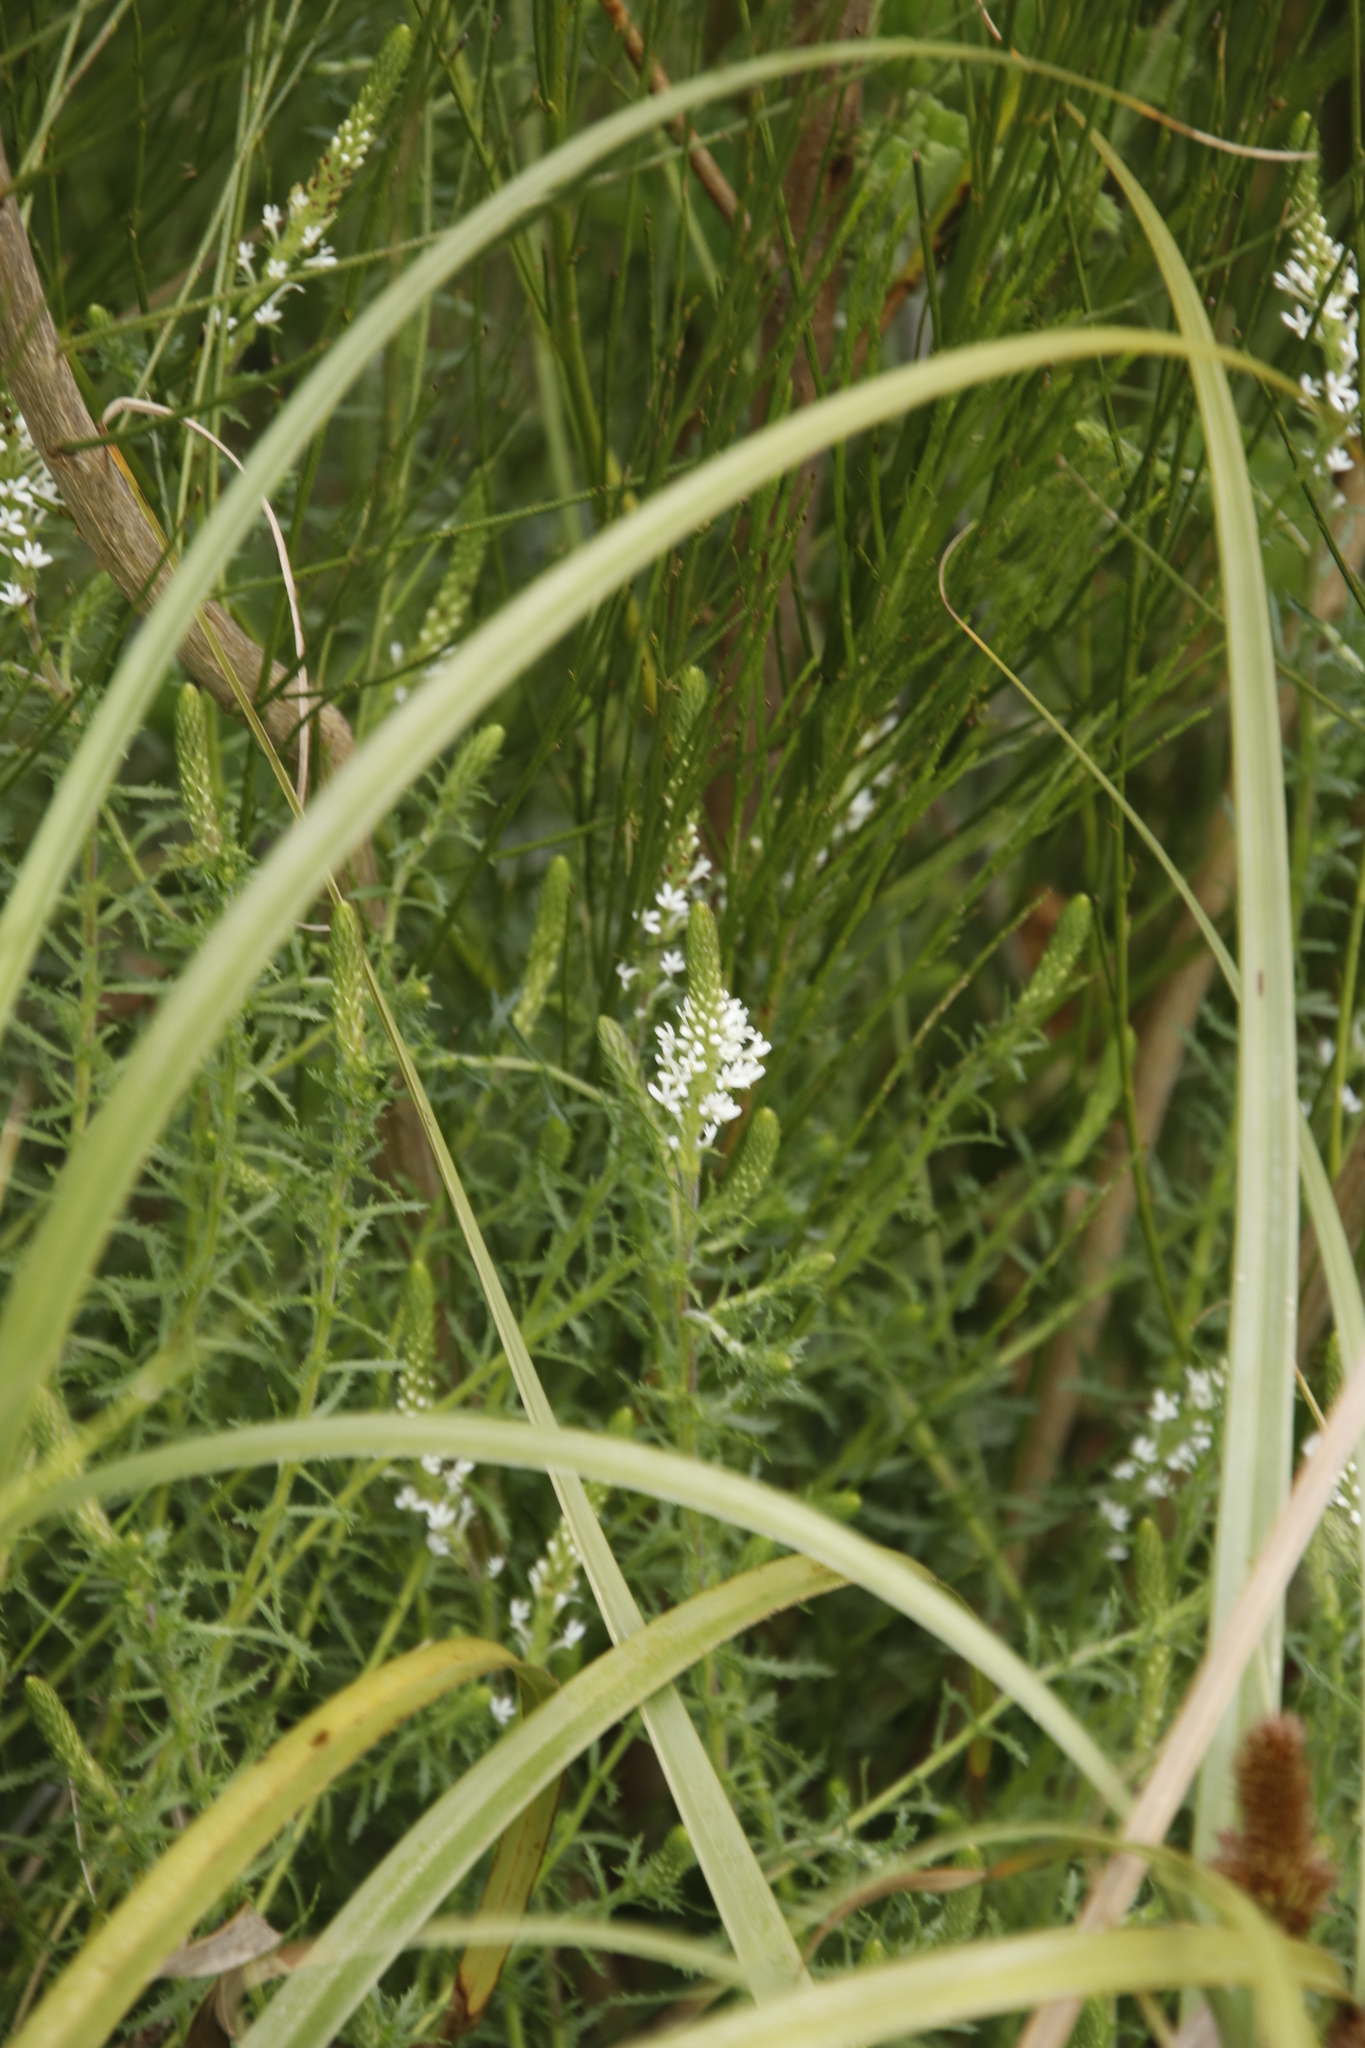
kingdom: Plantae
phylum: Tracheophyta
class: Magnoliopsida
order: Lamiales
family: Scrophulariaceae
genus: Dischisma
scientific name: Dischisma ciliatum
